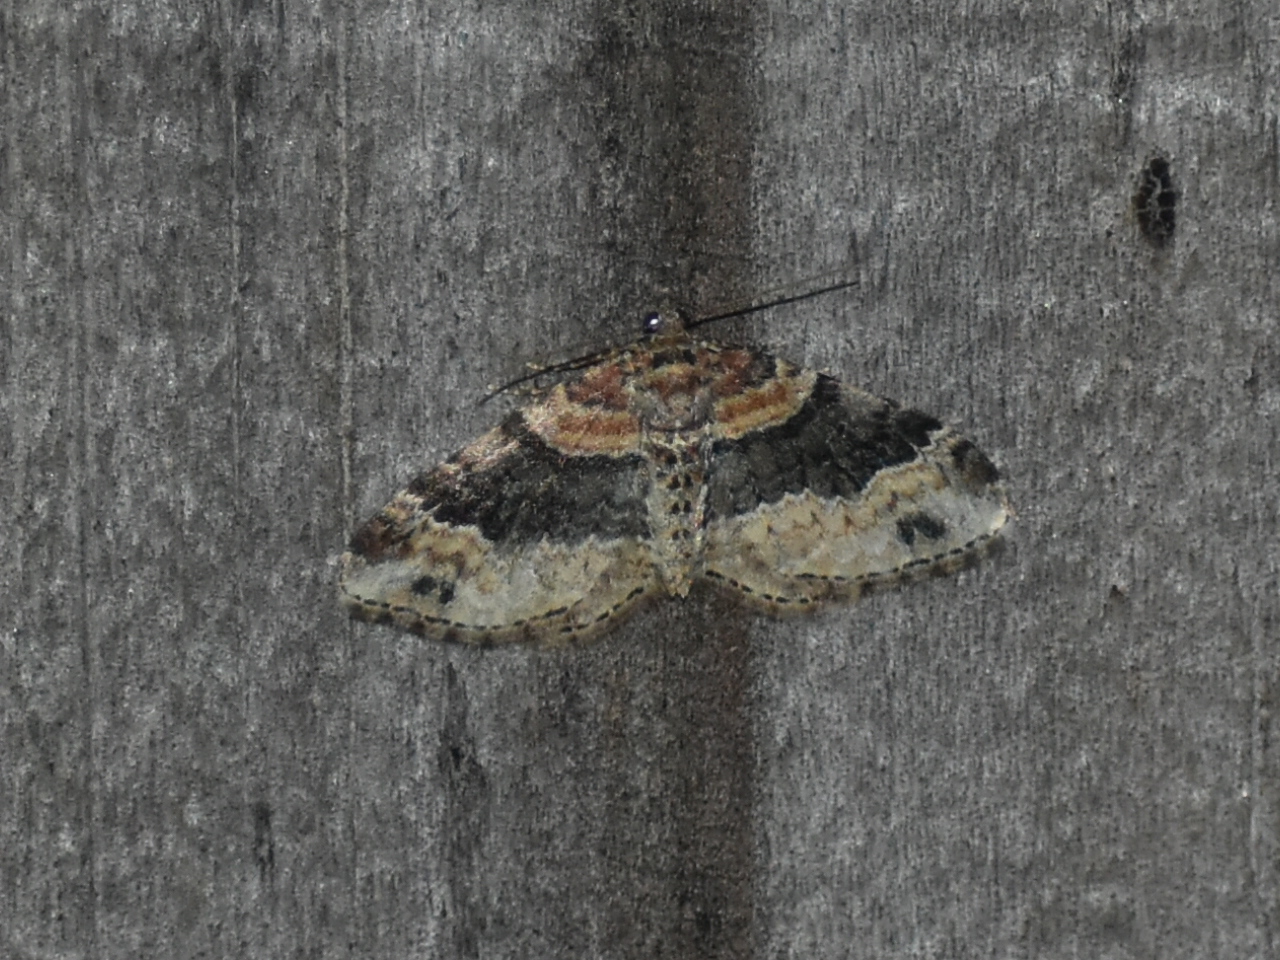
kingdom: Animalia
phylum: Arthropoda
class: Insecta
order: Lepidoptera
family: Geometridae
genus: Xanthorhoe
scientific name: Xanthorhoe ferrugata
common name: Dark-barred twin-spot carpet
